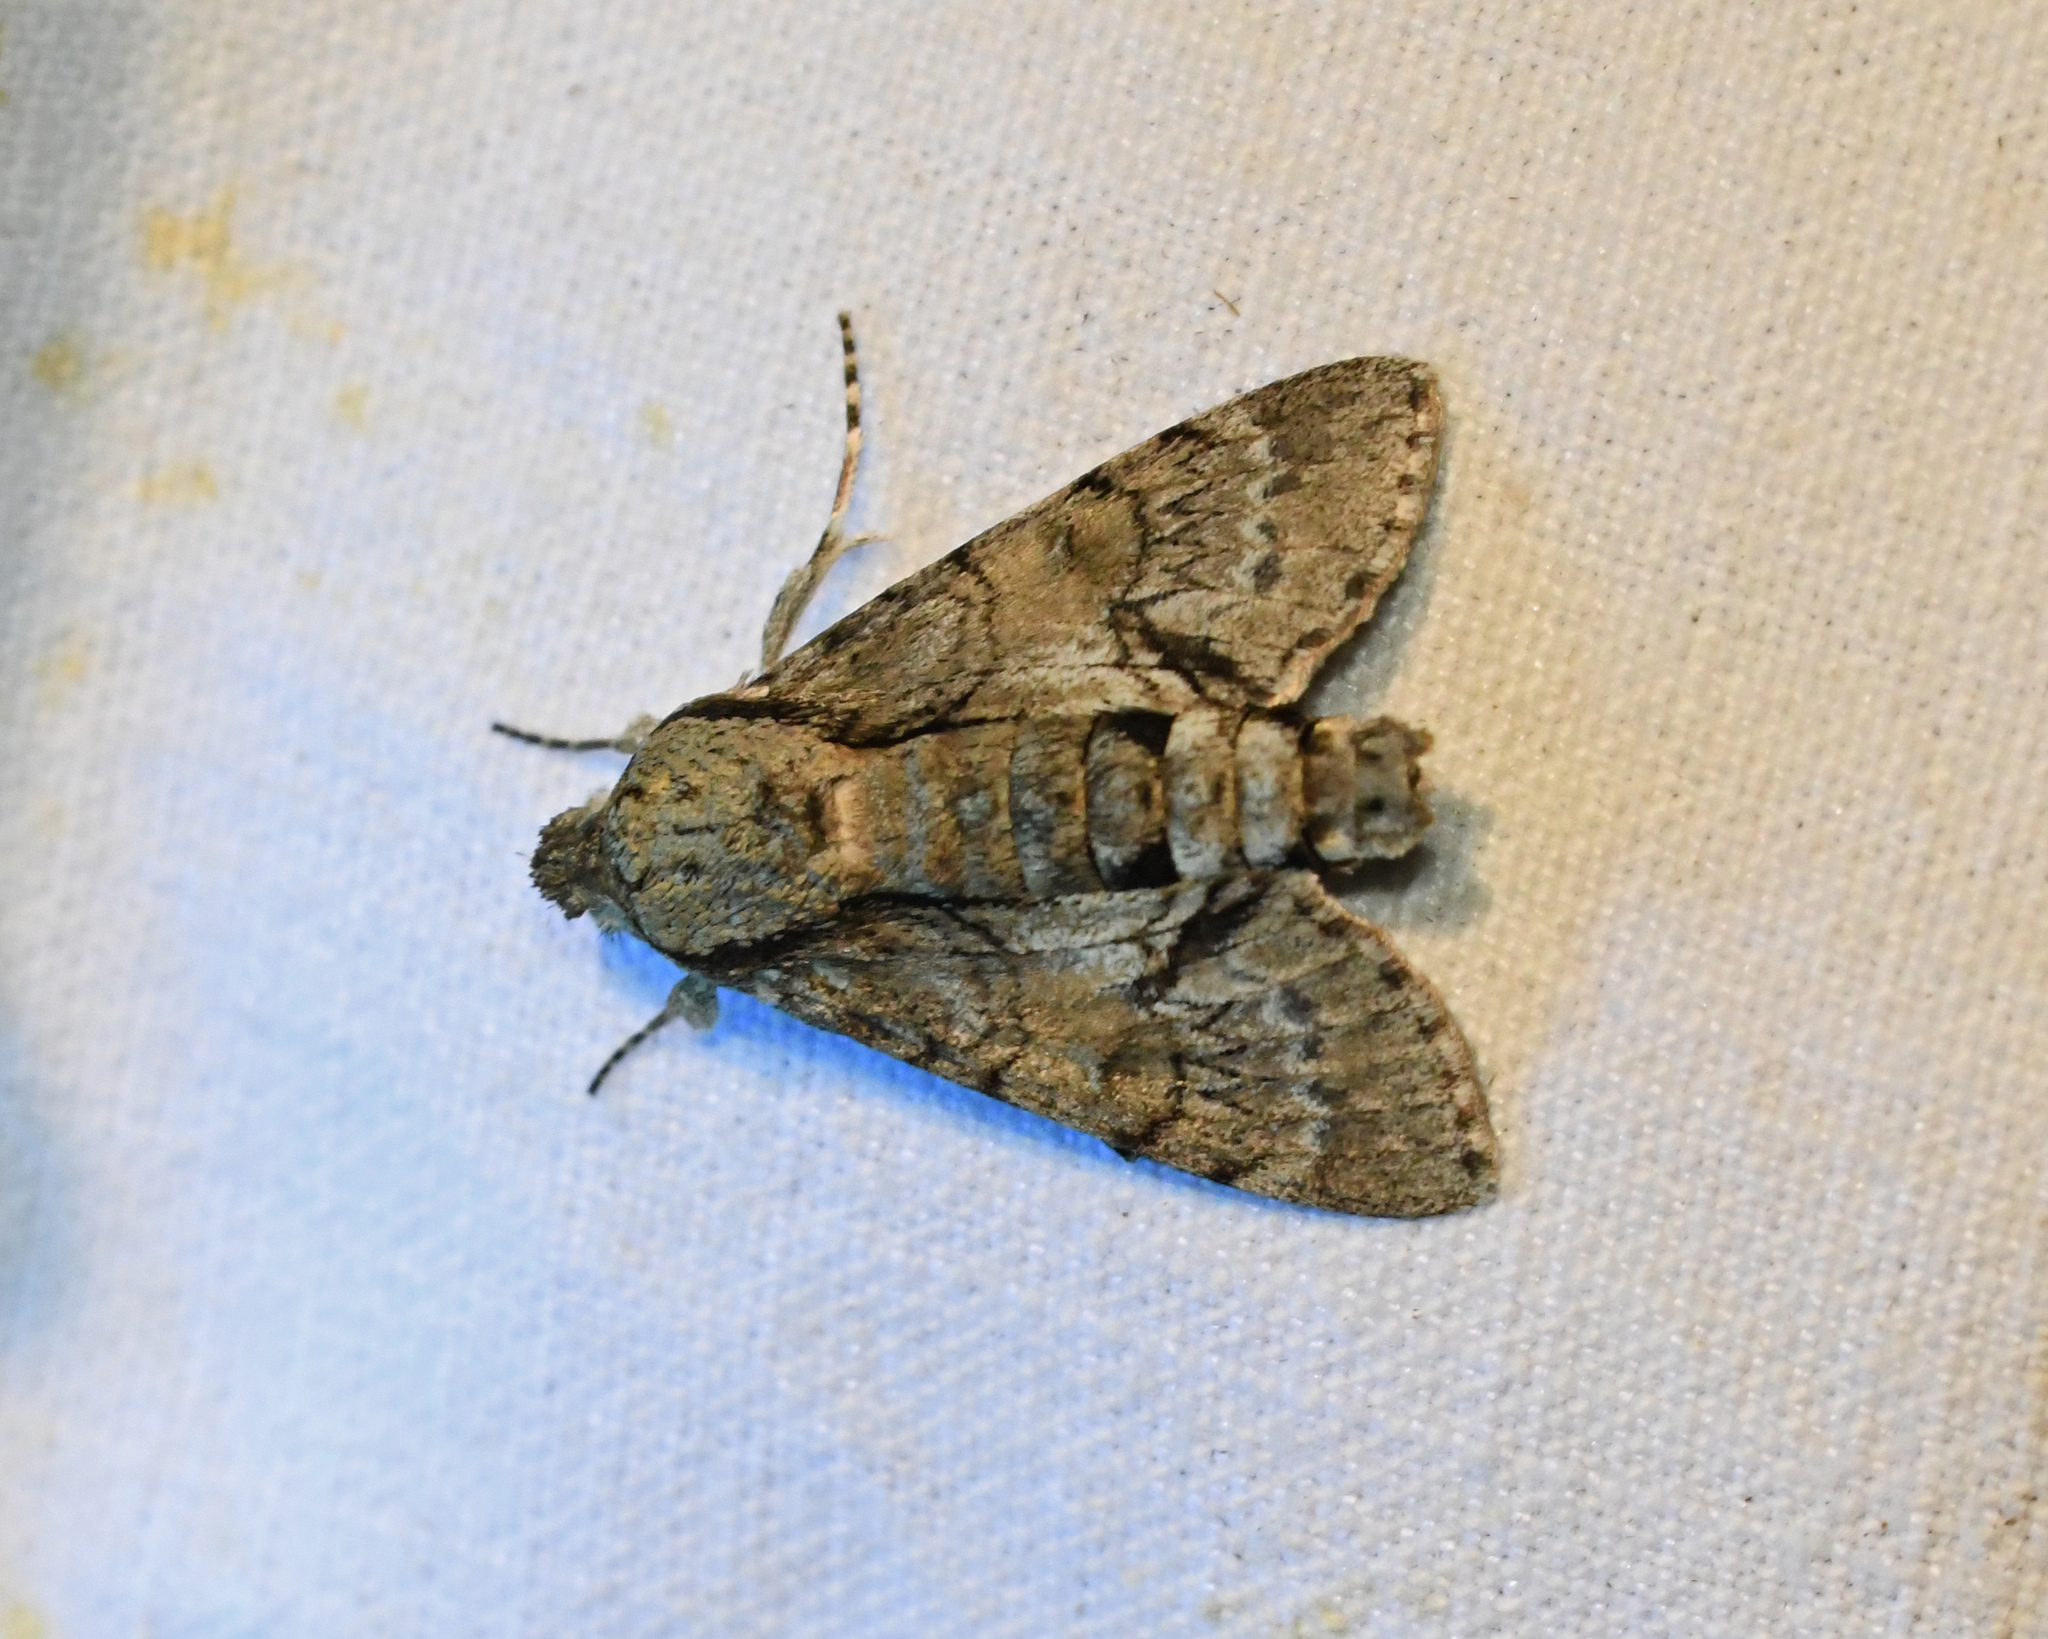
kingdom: Animalia
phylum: Arthropoda
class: Insecta
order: Lepidoptera
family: Sphingidae
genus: Cautethia
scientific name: Cautethia noctuiformis
